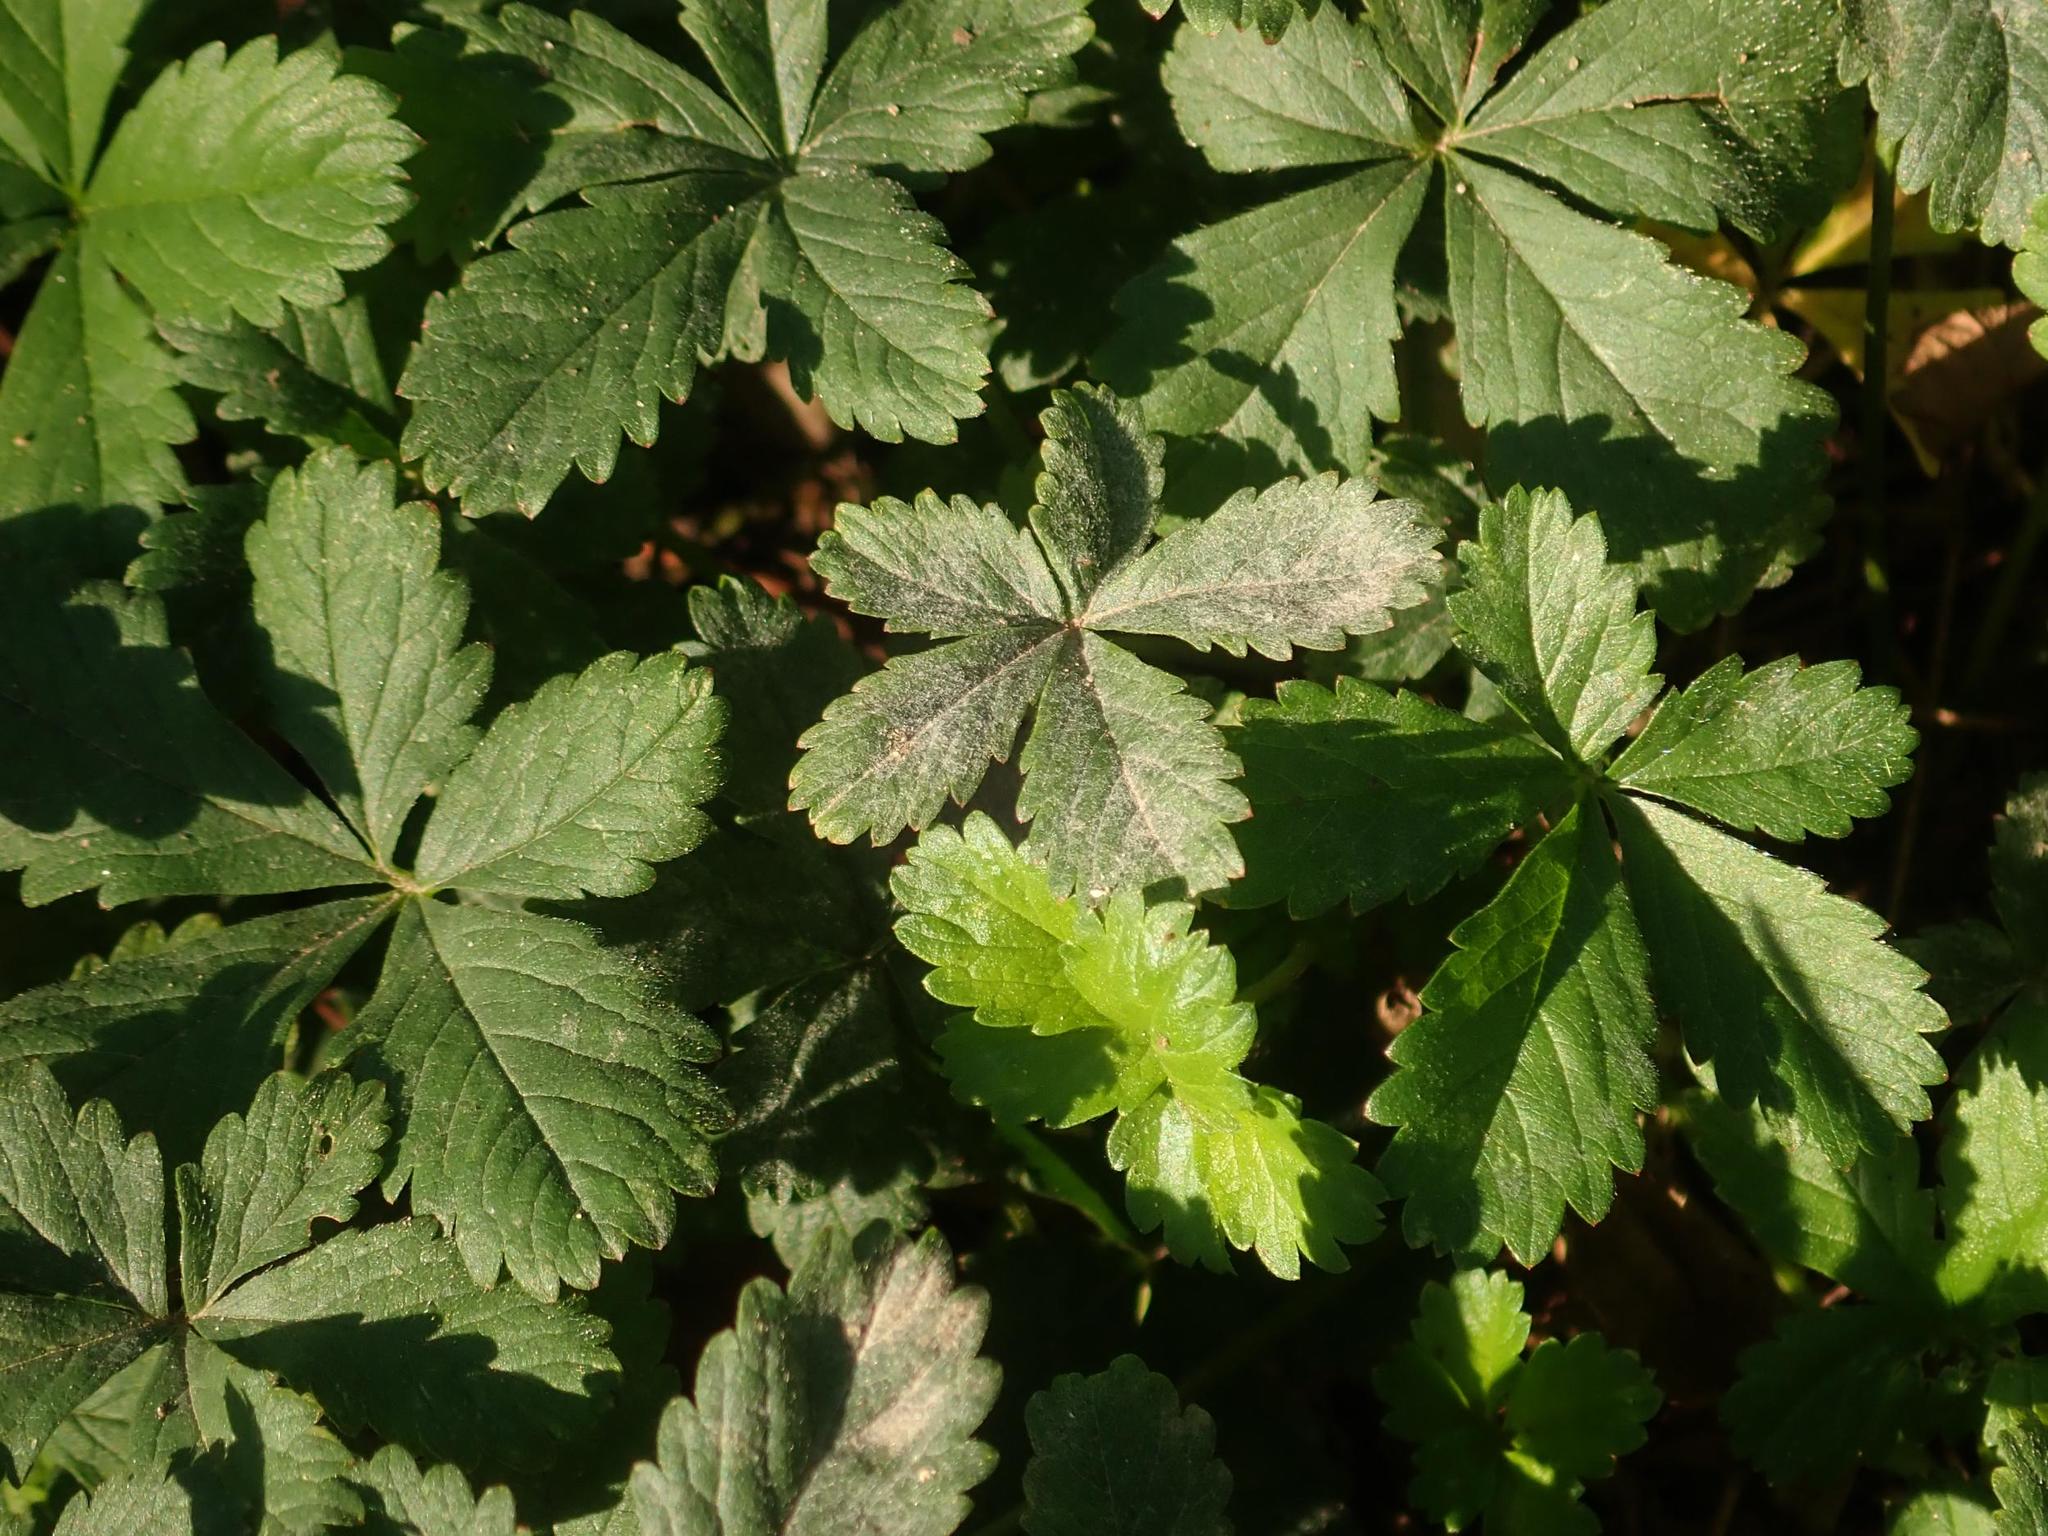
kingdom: Plantae
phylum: Tracheophyta
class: Magnoliopsida
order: Rosales
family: Rosaceae
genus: Potentilla
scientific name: Potentilla reptans
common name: Creeping cinquefoil
